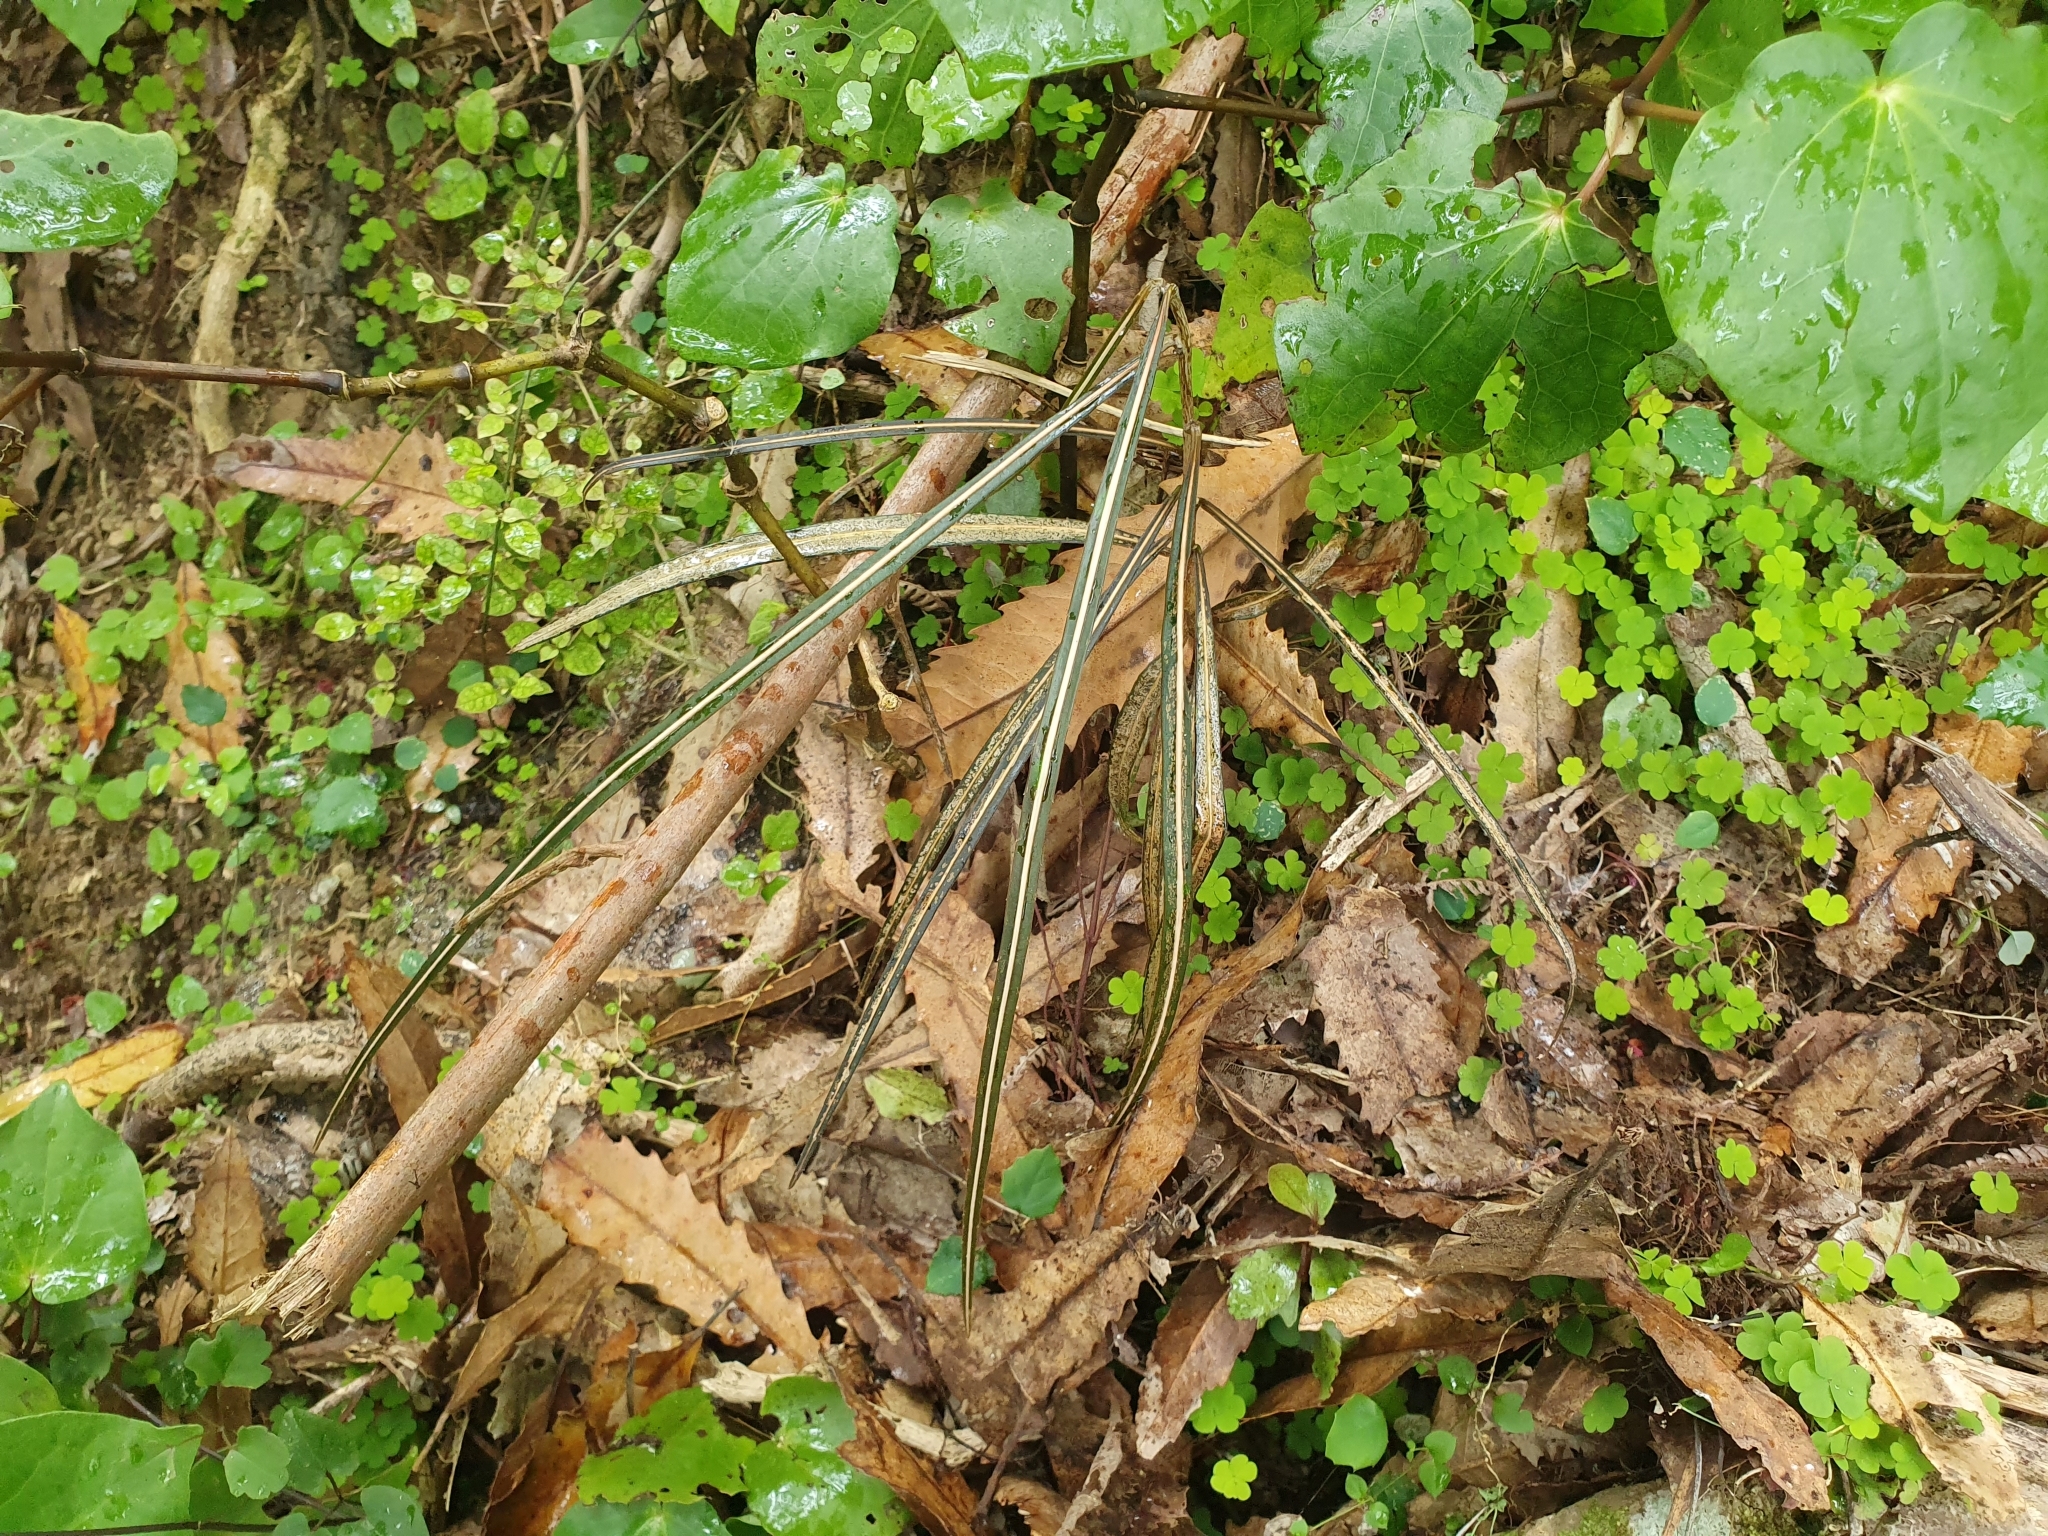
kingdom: Plantae
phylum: Tracheophyta
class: Magnoliopsida
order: Apiales
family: Araliaceae
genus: Pseudopanax
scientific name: Pseudopanax crassifolius
